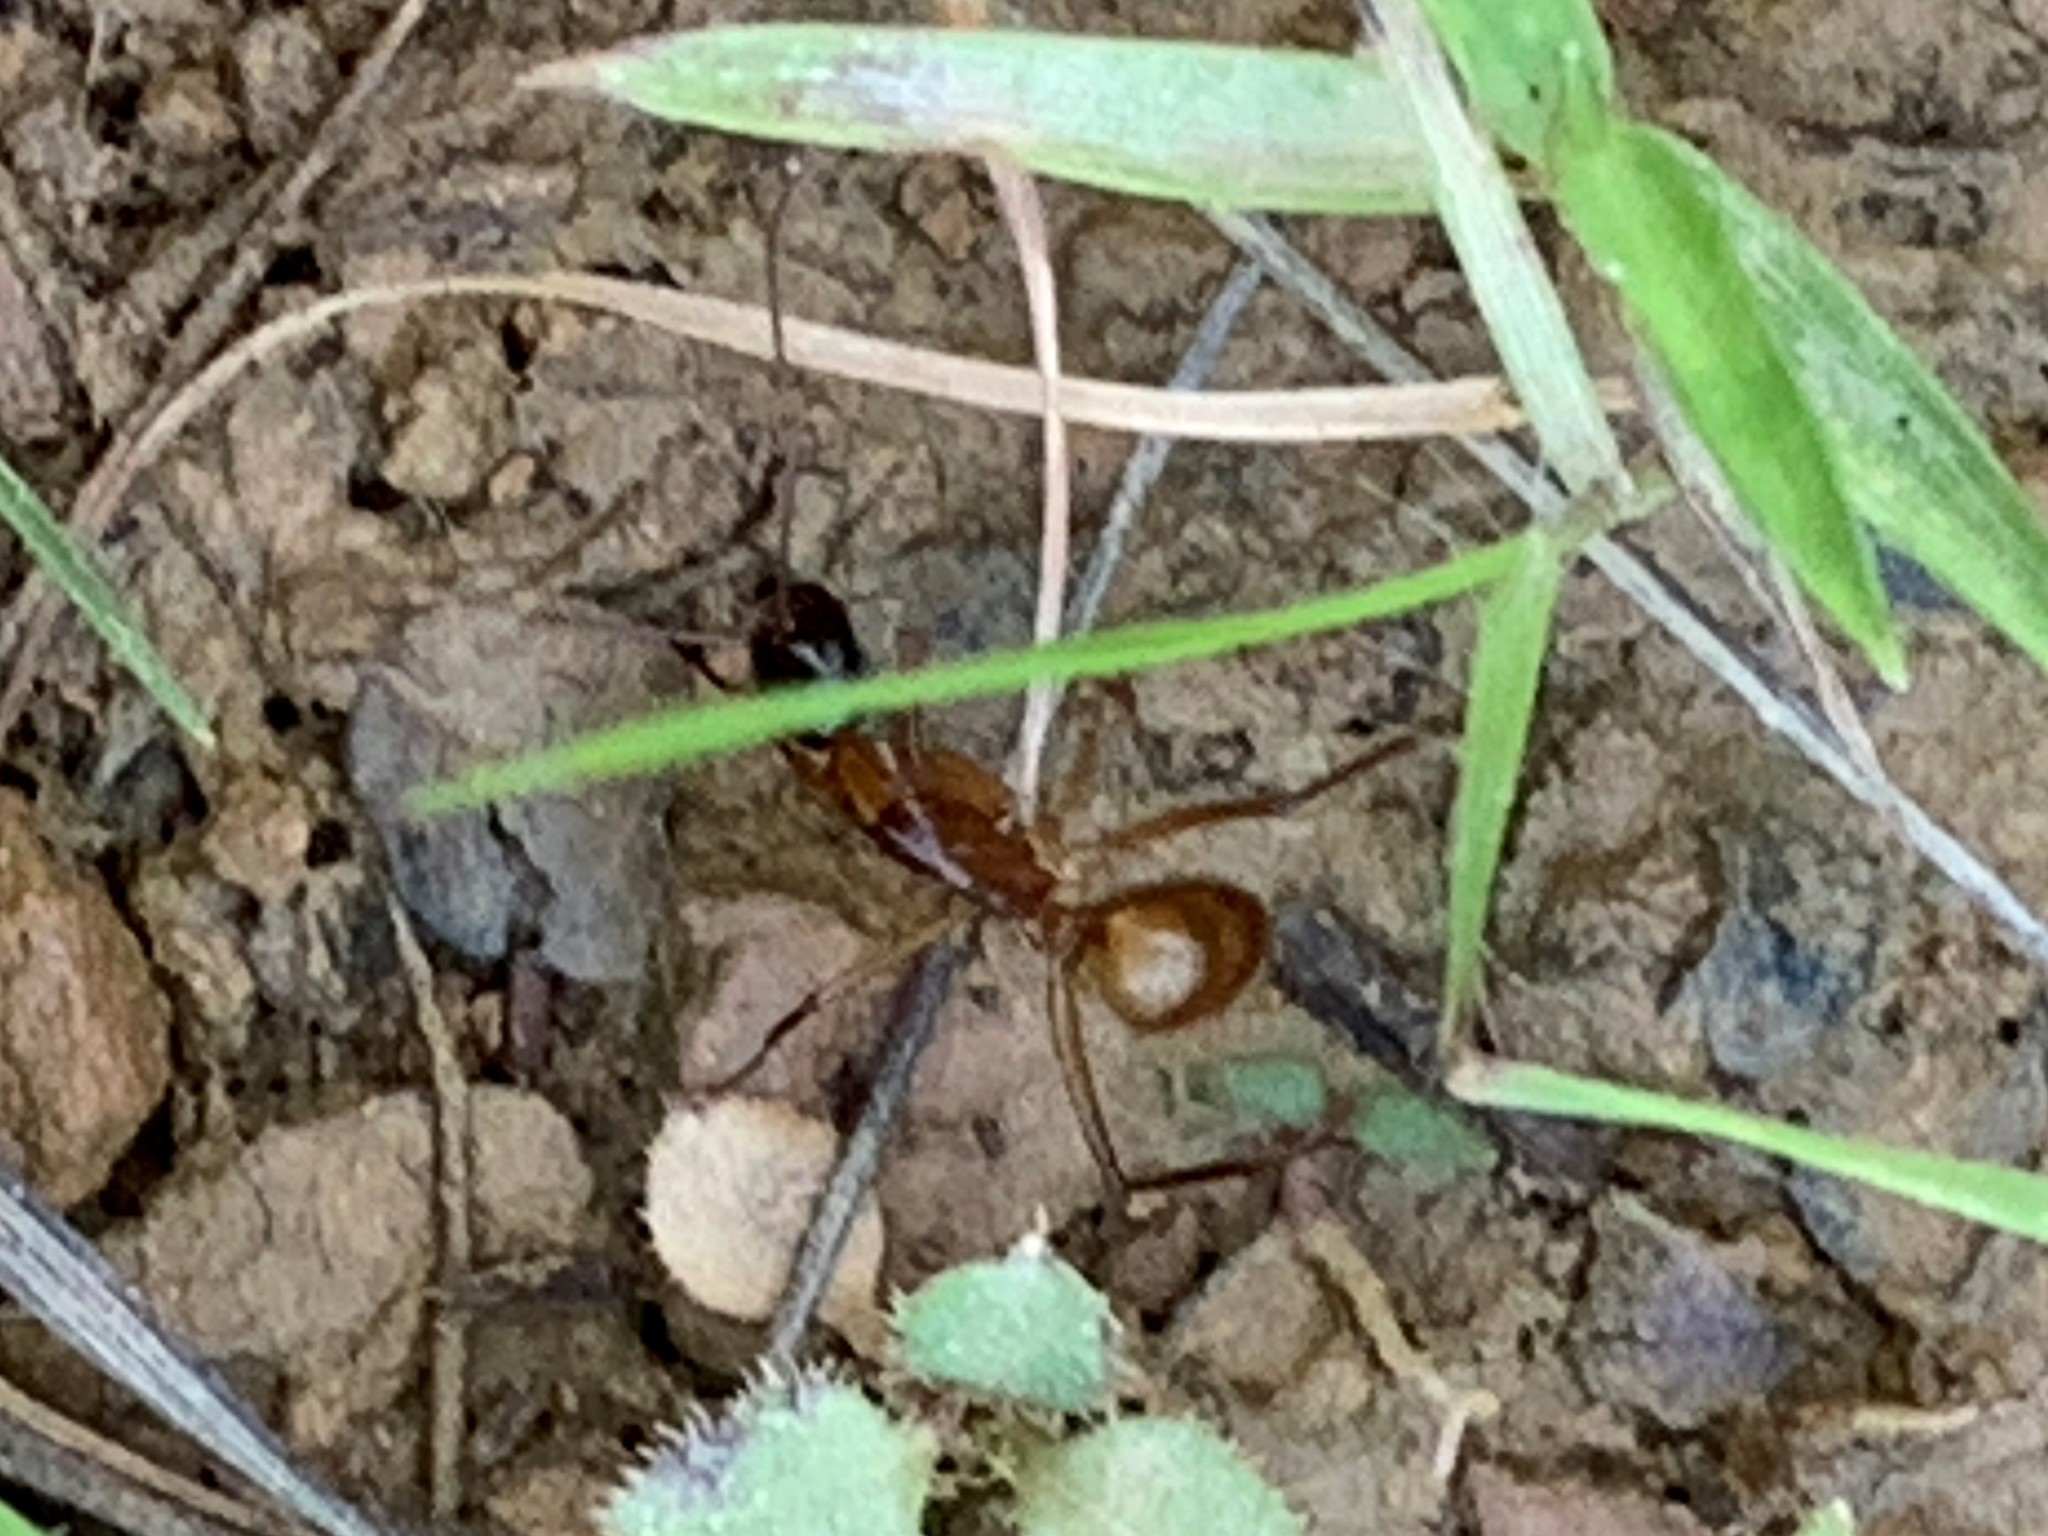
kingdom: Animalia
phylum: Arthropoda
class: Insecta
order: Hymenoptera
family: Formicidae
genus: Camponotus
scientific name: Camponotus americanus
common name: American carpenter ant
